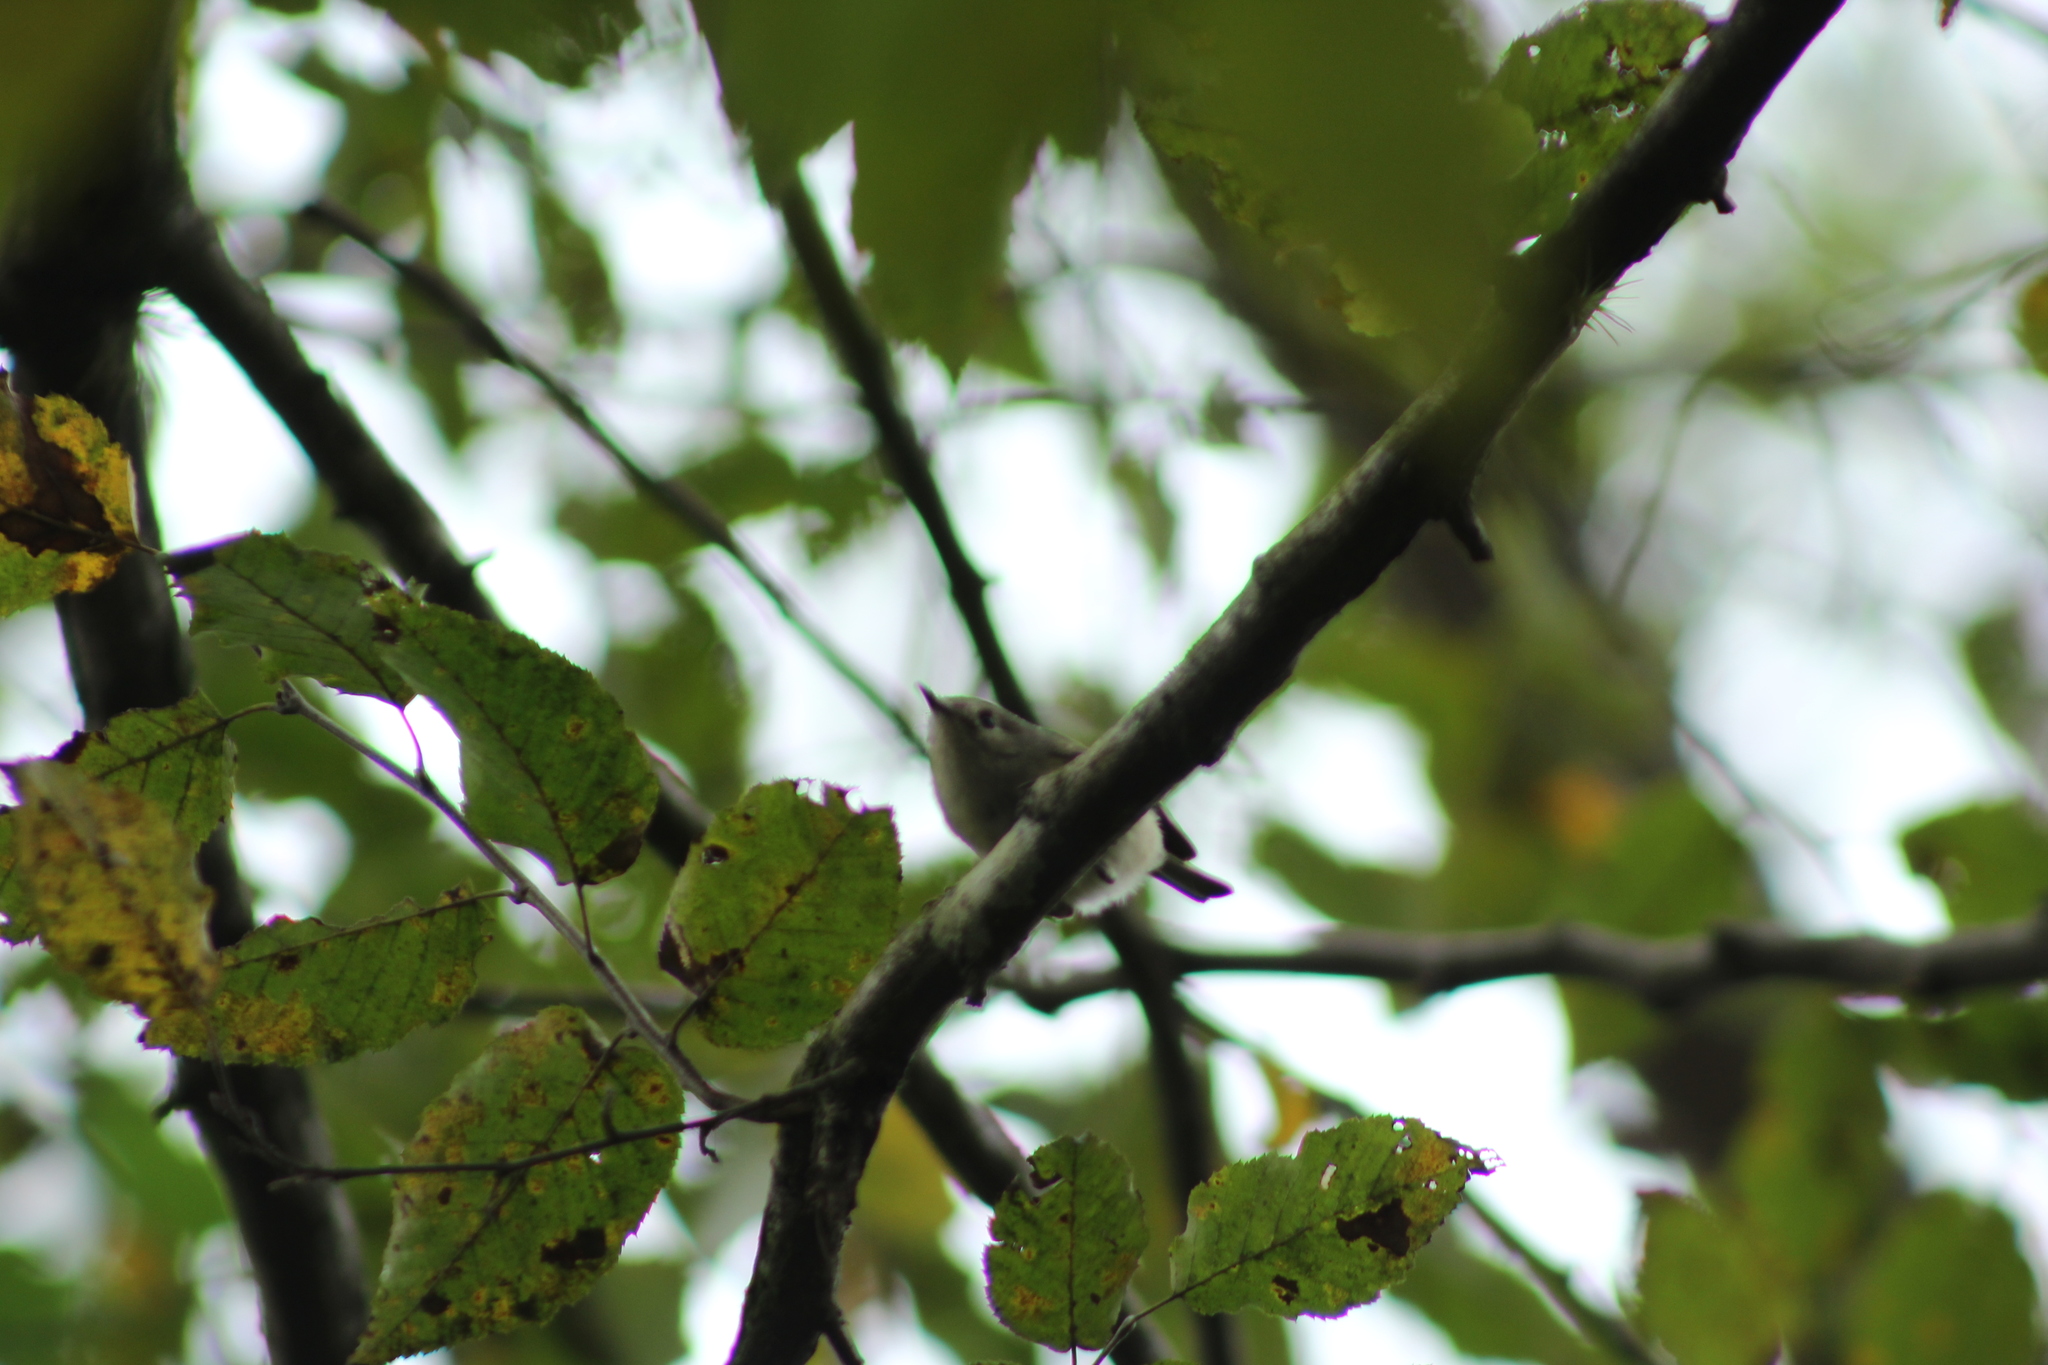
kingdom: Animalia
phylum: Chordata
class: Aves
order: Passeriformes
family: Regulidae
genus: Regulus
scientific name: Regulus calendula
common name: Ruby-crowned kinglet
